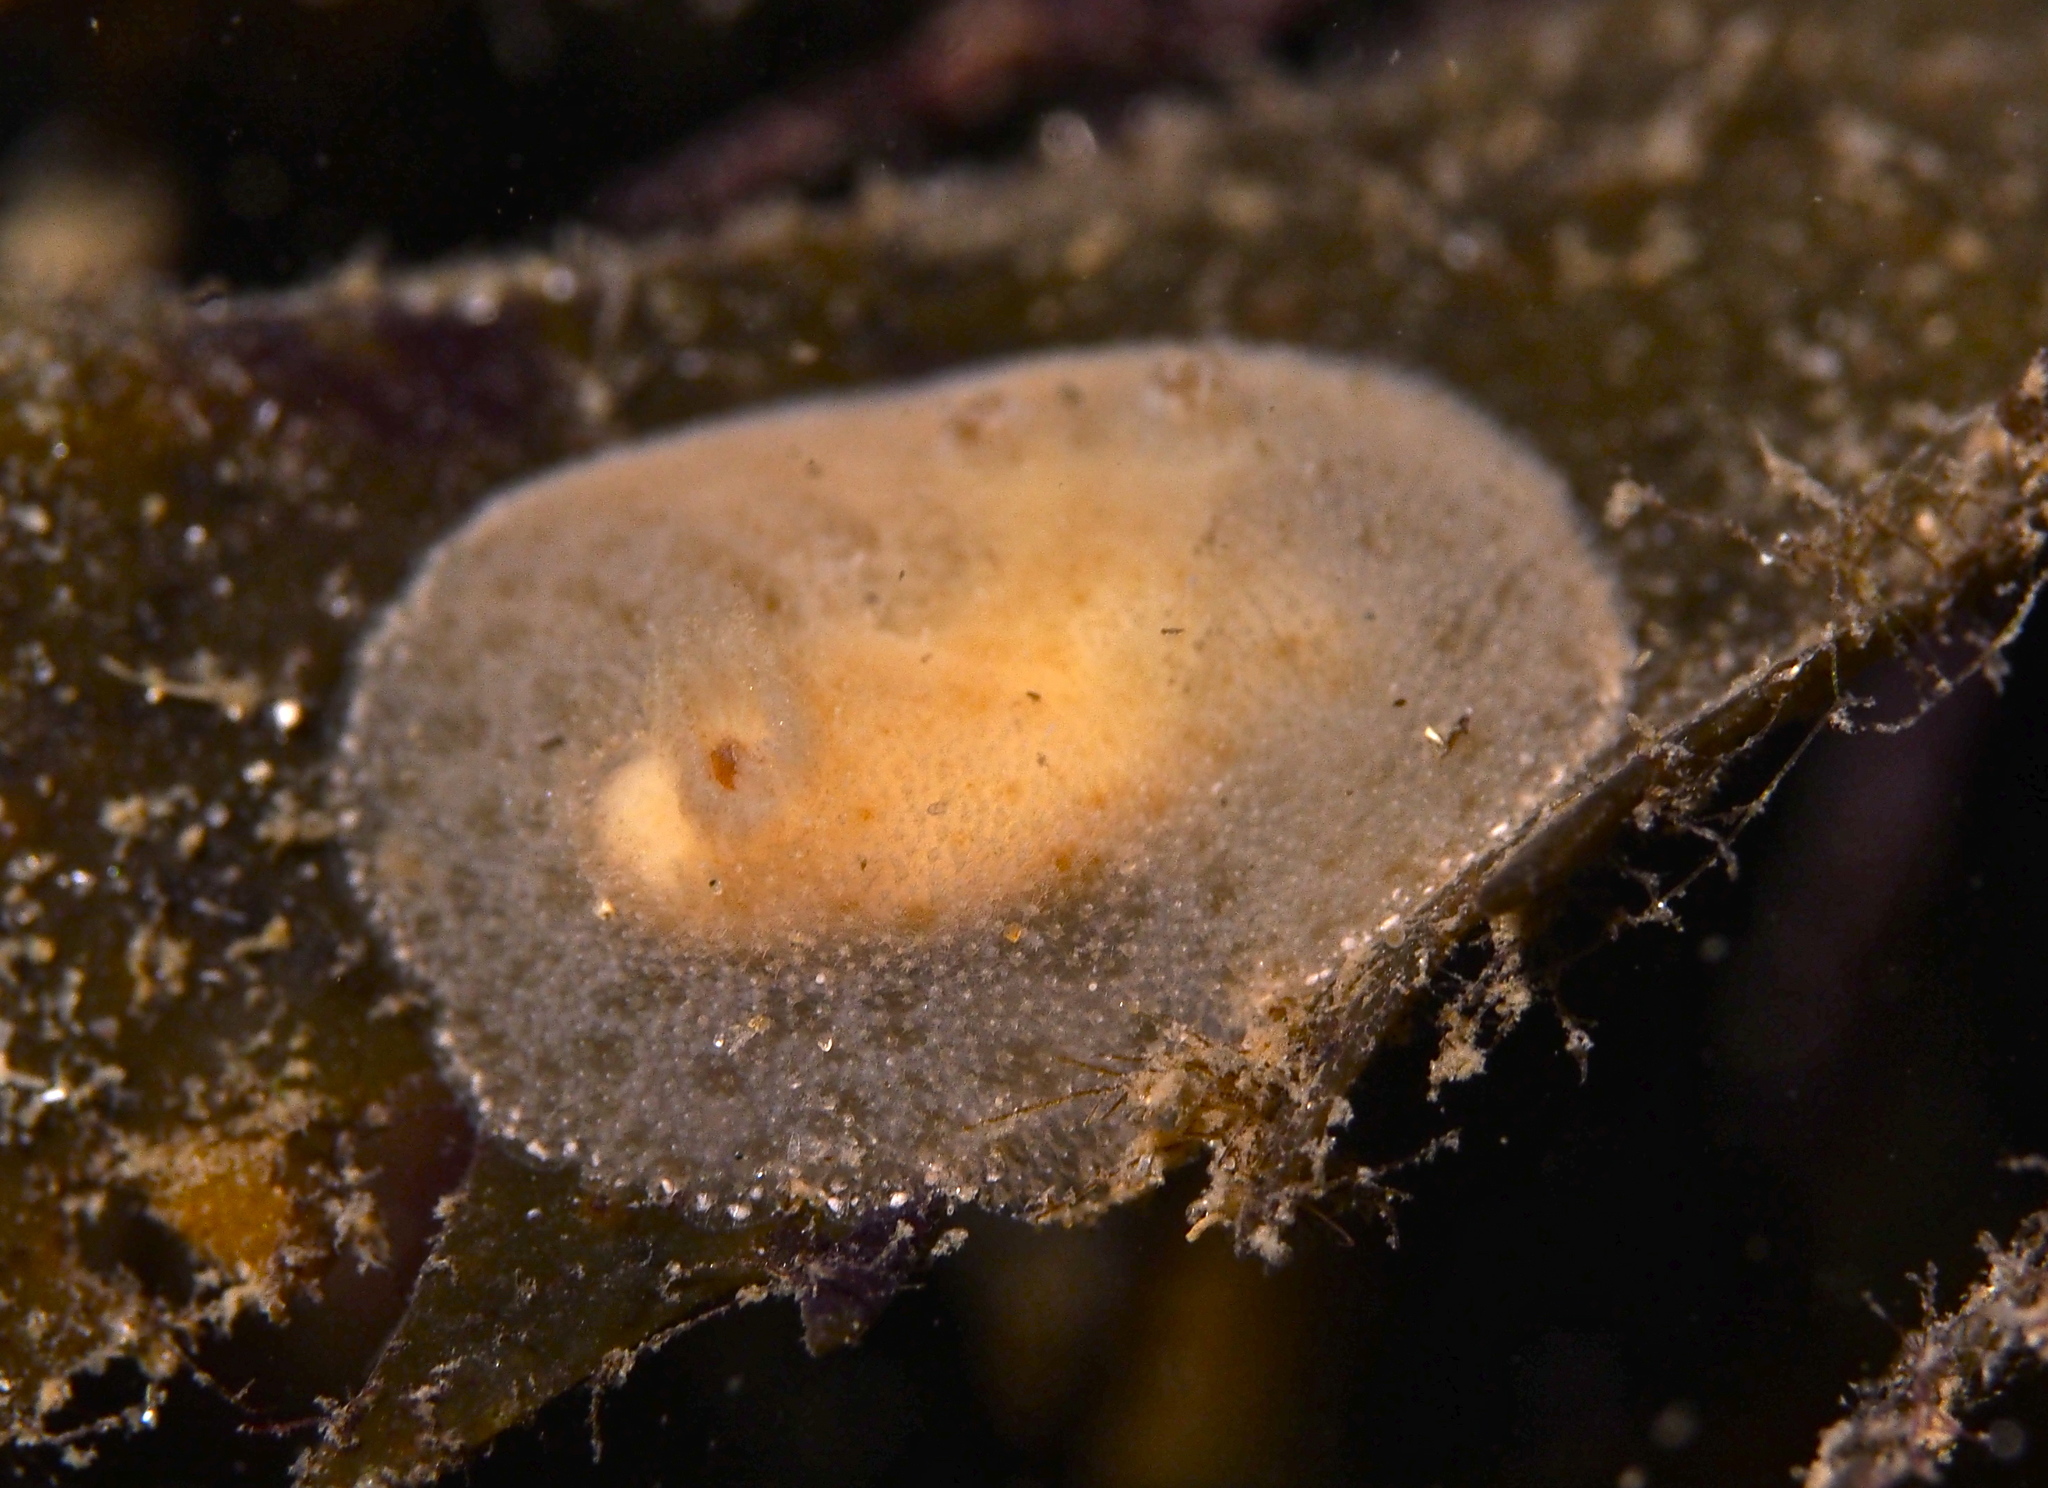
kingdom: Animalia
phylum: Mollusca
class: Gastropoda
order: Nudibranchia
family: Discodorididae
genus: Jorunna
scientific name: Jorunna tomentosa
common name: Grey sea slug
